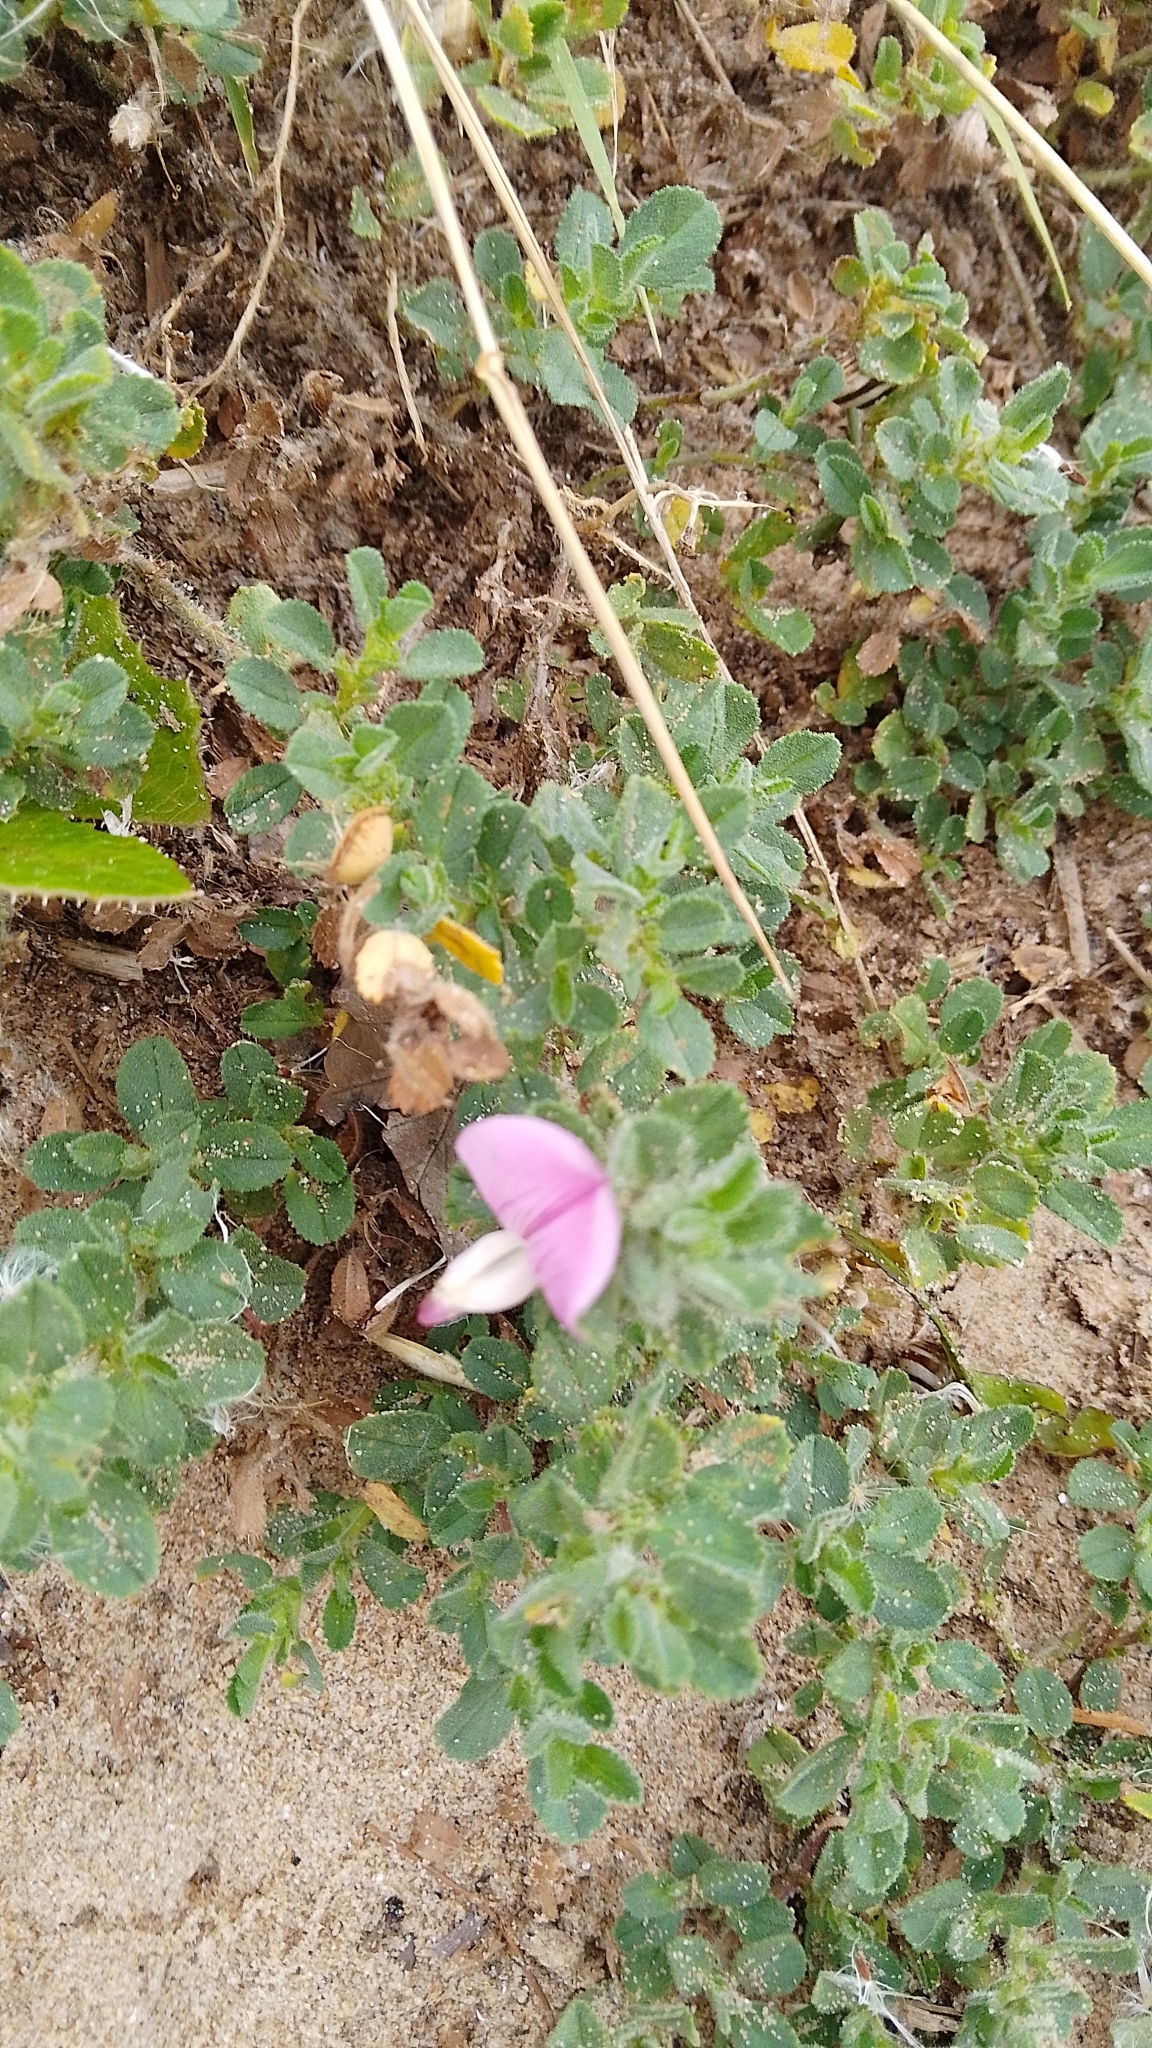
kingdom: Plantae
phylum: Tracheophyta
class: Magnoliopsida
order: Fabales
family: Fabaceae
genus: Ononis
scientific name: Ononis spinosa
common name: Spiny restharrow
